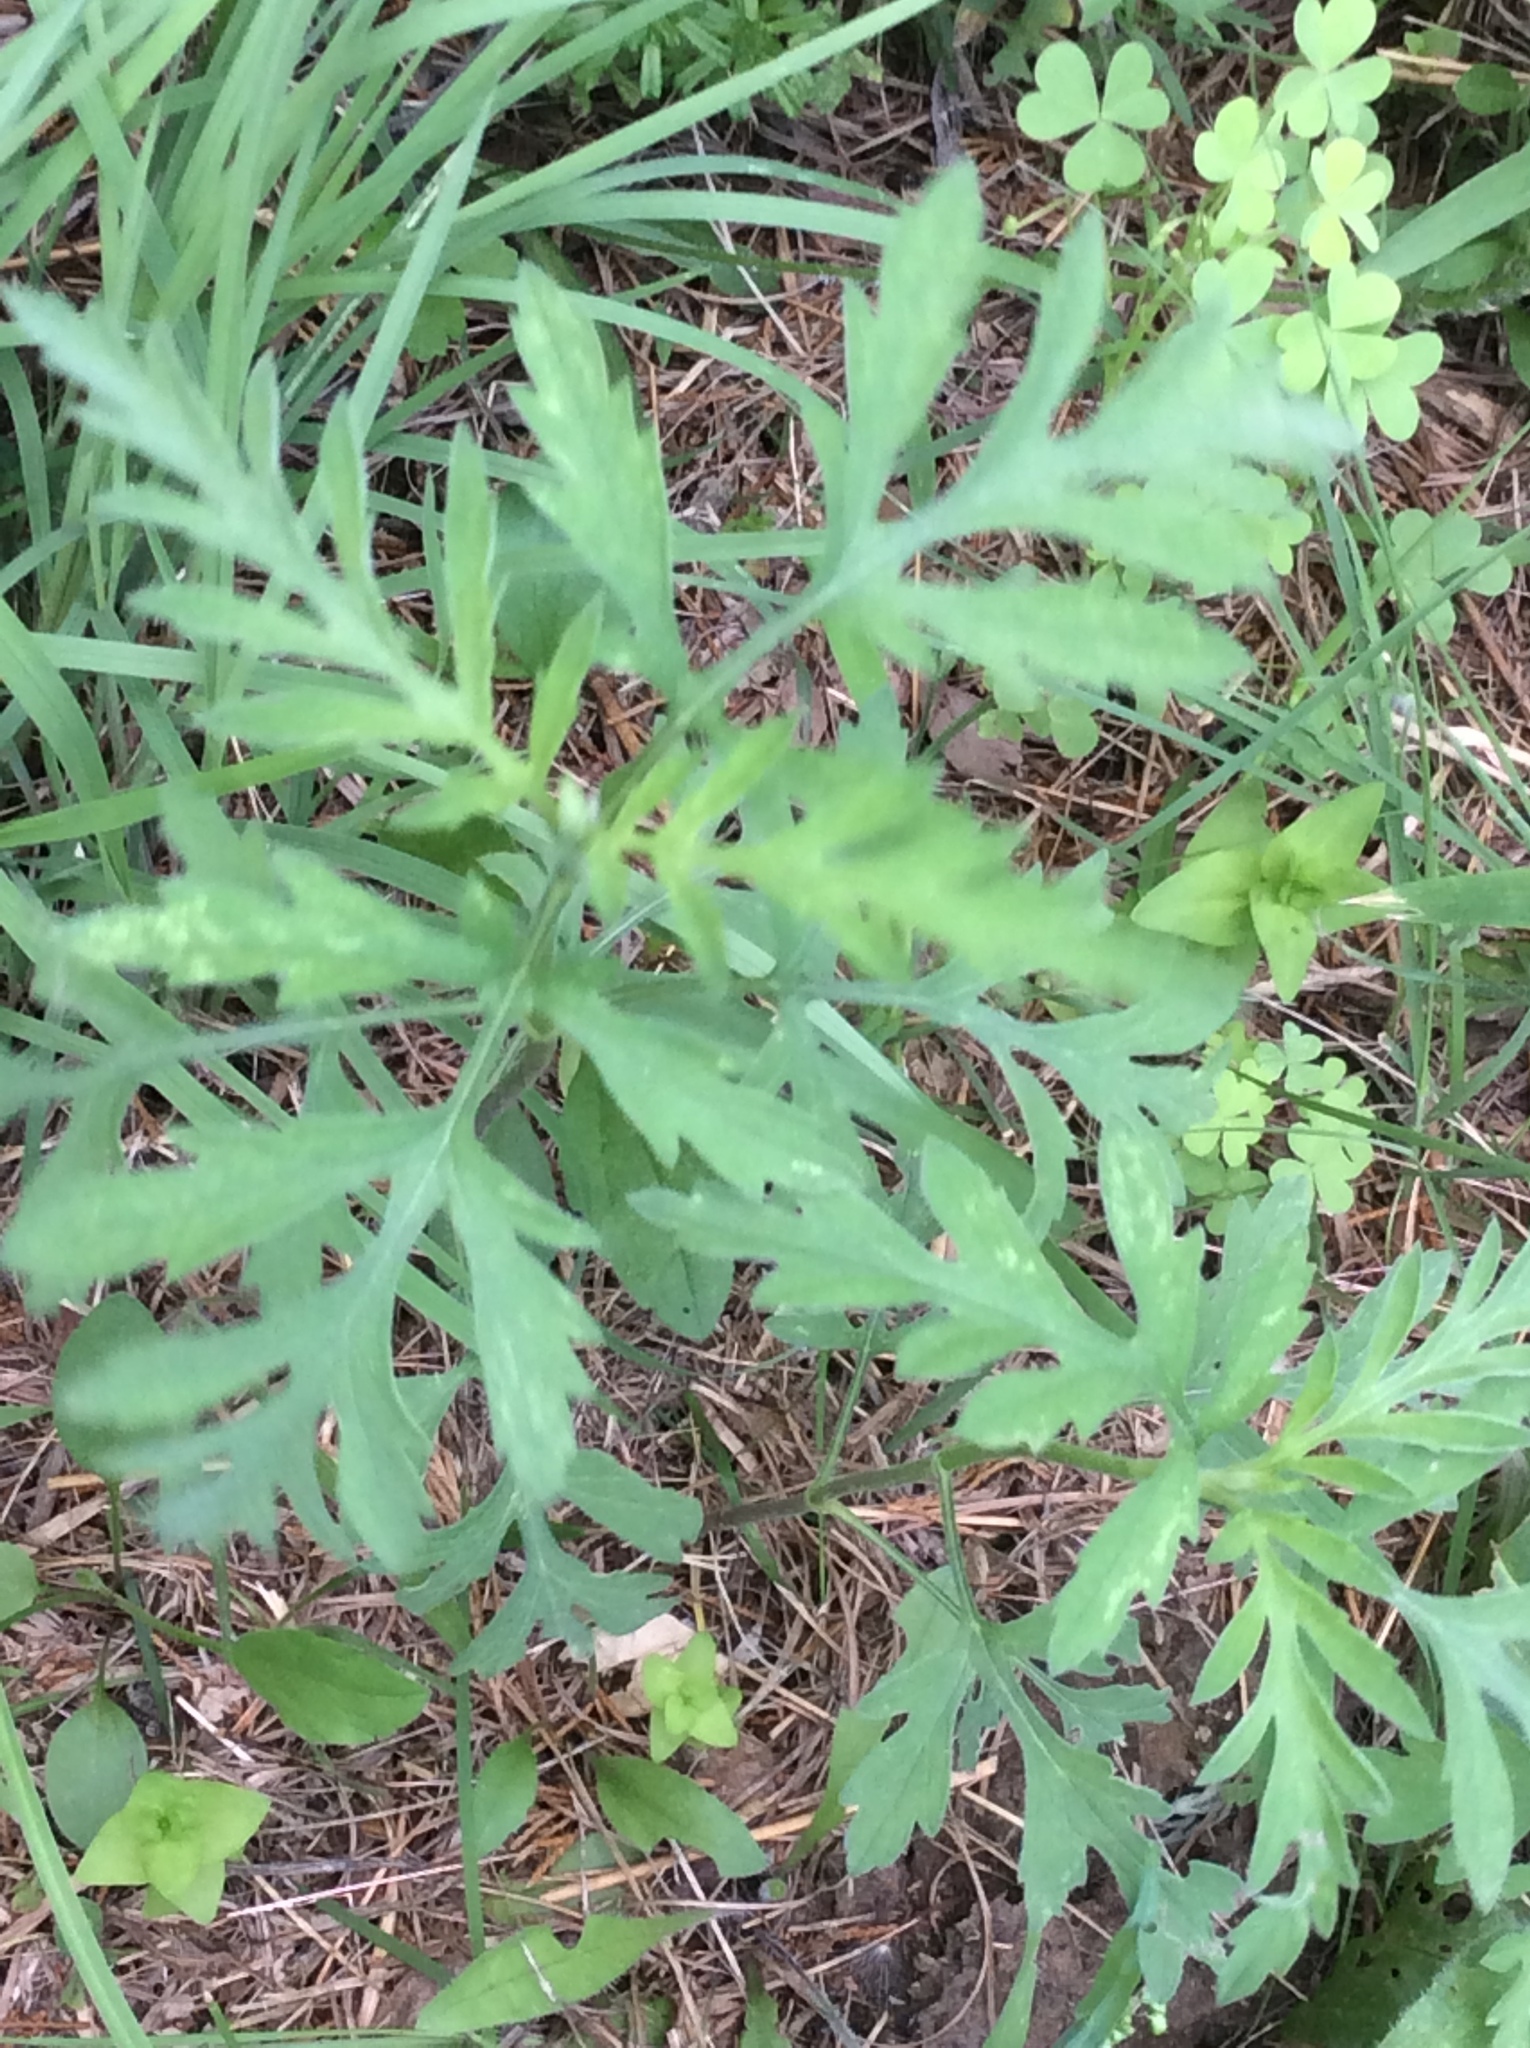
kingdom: Plantae
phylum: Tracheophyta
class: Magnoliopsida
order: Asterales
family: Asteraceae
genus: Ambrosia
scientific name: Ambrosia artemisiifolia
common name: Annual ragweed
